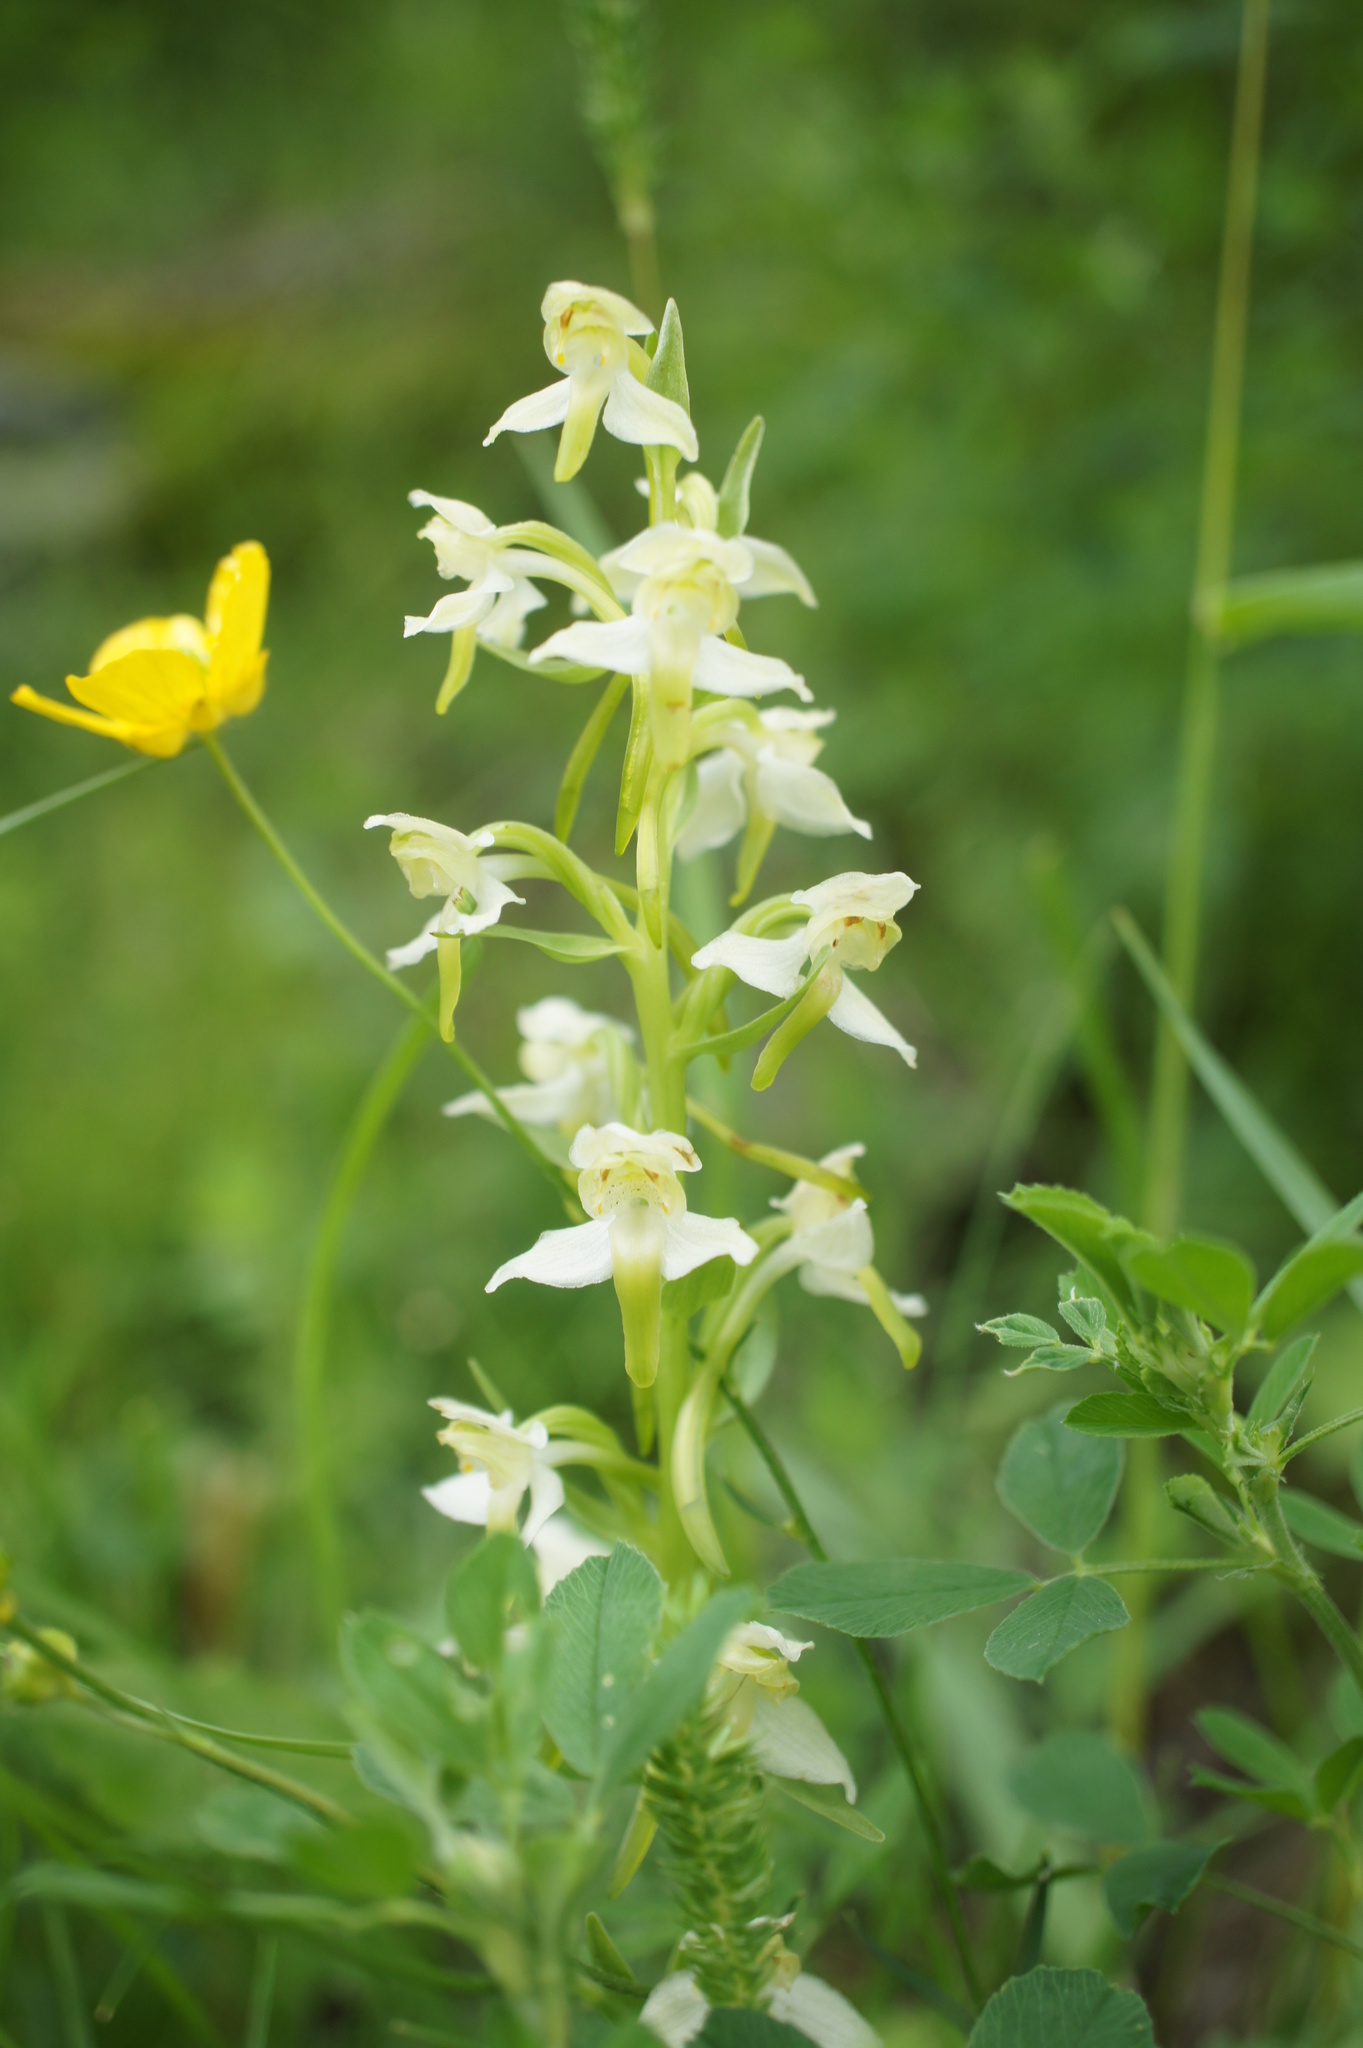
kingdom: Plantae
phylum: Tracheophyta
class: Liliopsida
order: Asparagales
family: Orchidaceae
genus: Platanthera
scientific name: Platanthera chlorantha
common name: Greater butterfly-orchid
